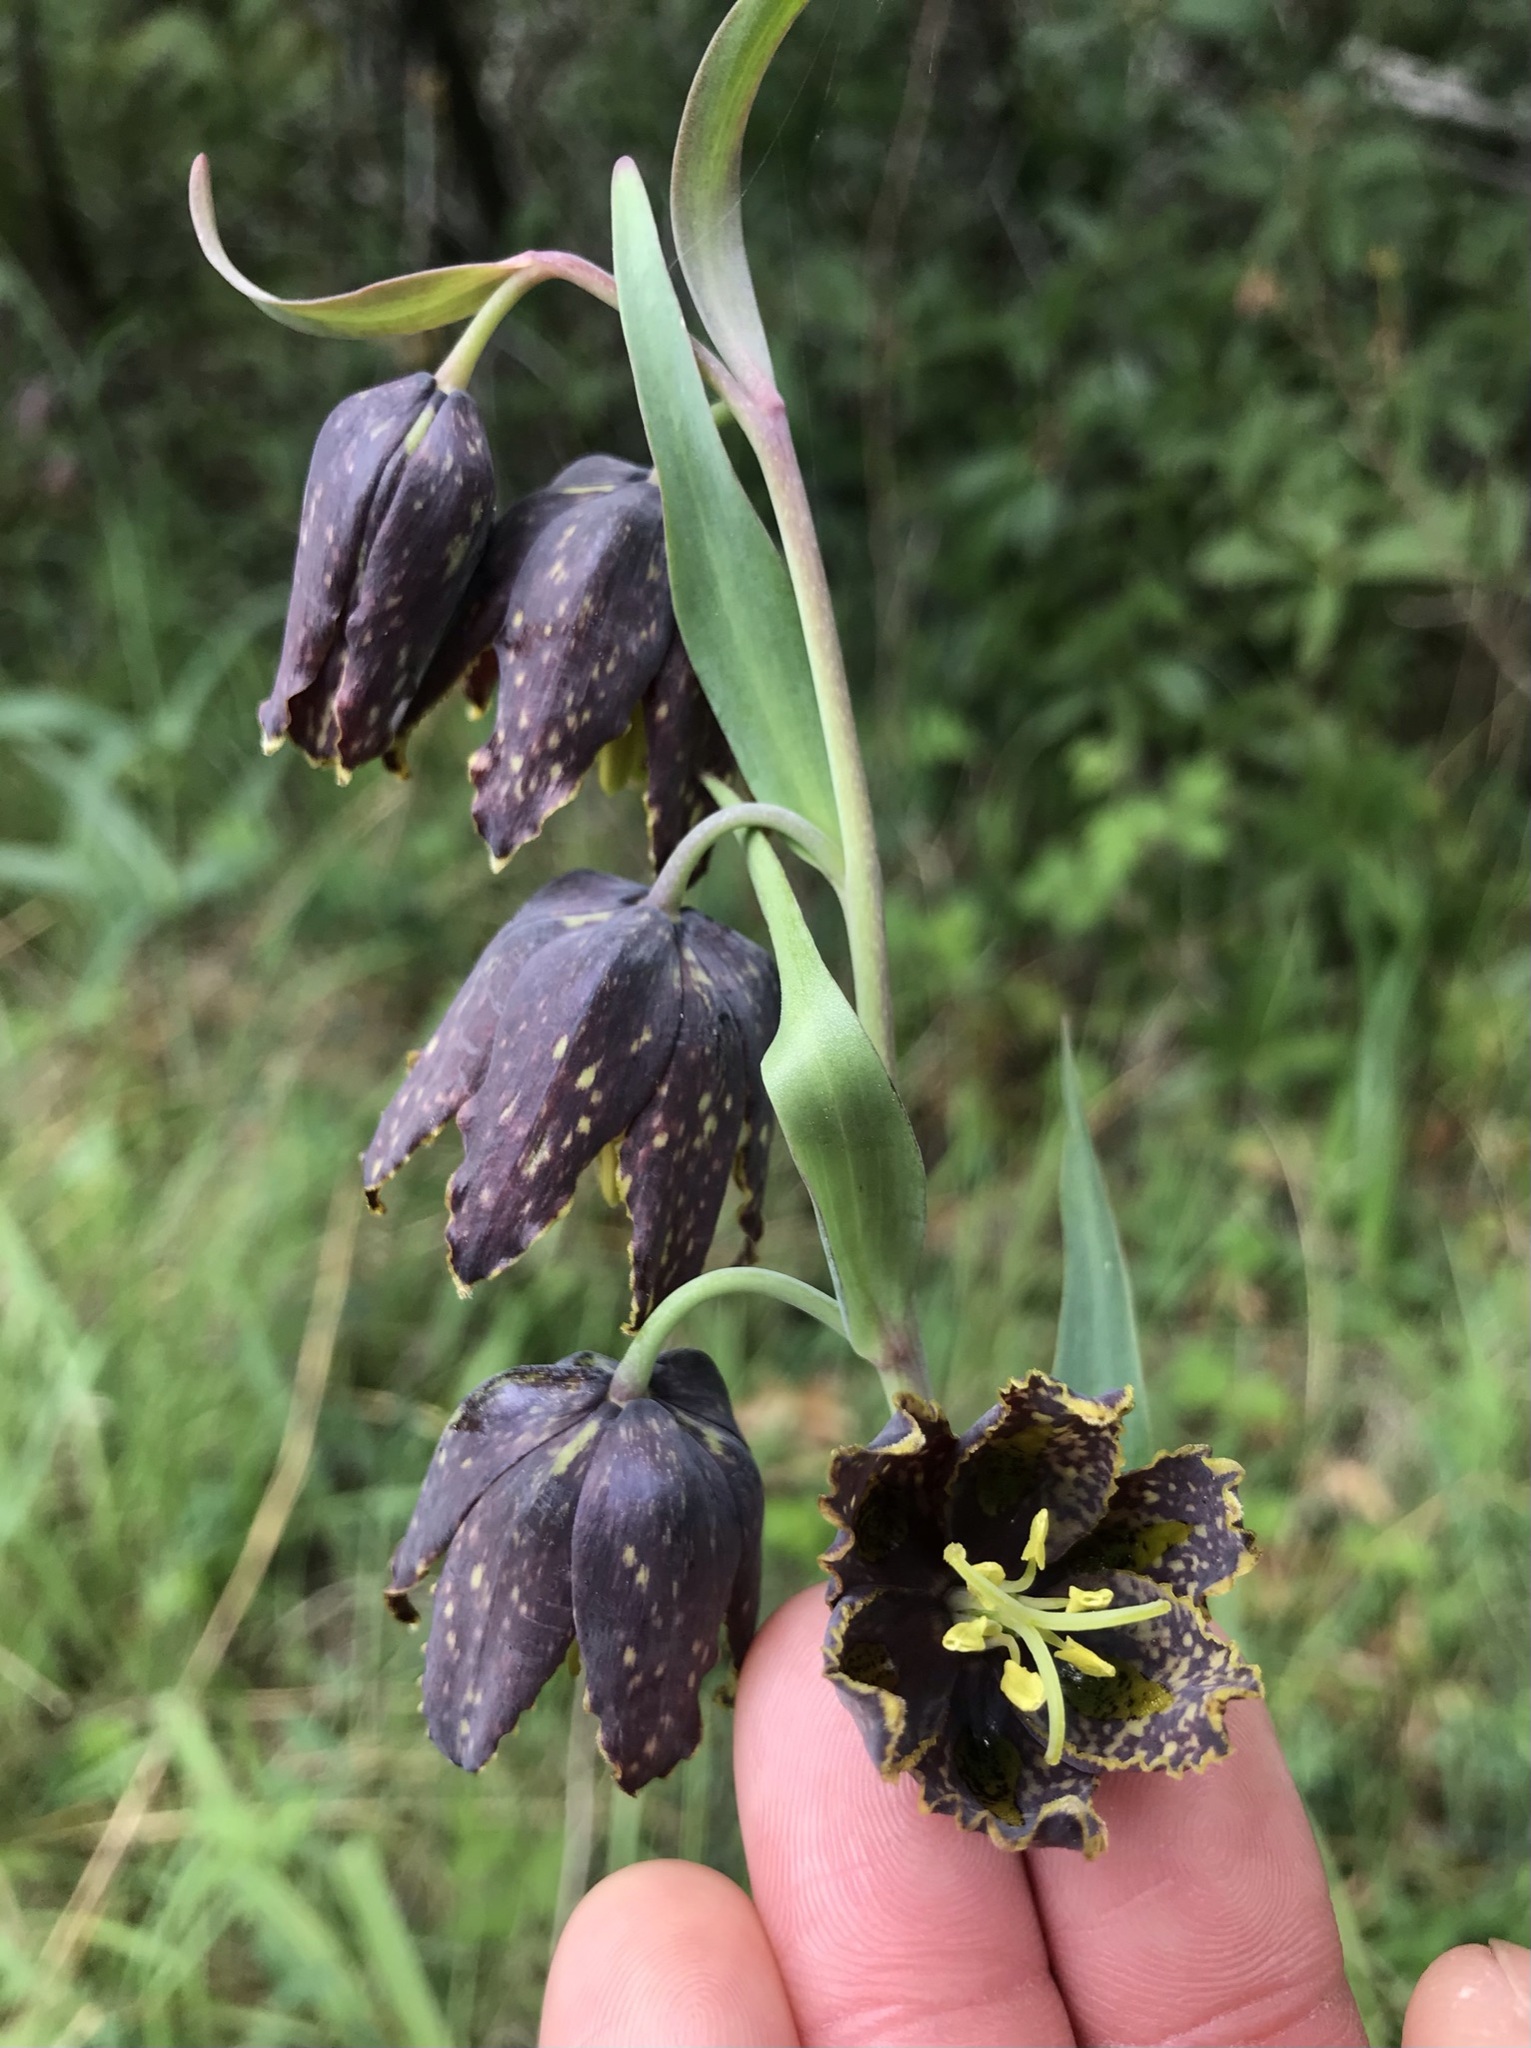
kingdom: Plantae
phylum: Tracheophyta
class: Liliopsida
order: Liliales
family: Liliaceae
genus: Fritillaria
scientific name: Fritillaria affinis
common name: Ojai fritillary
